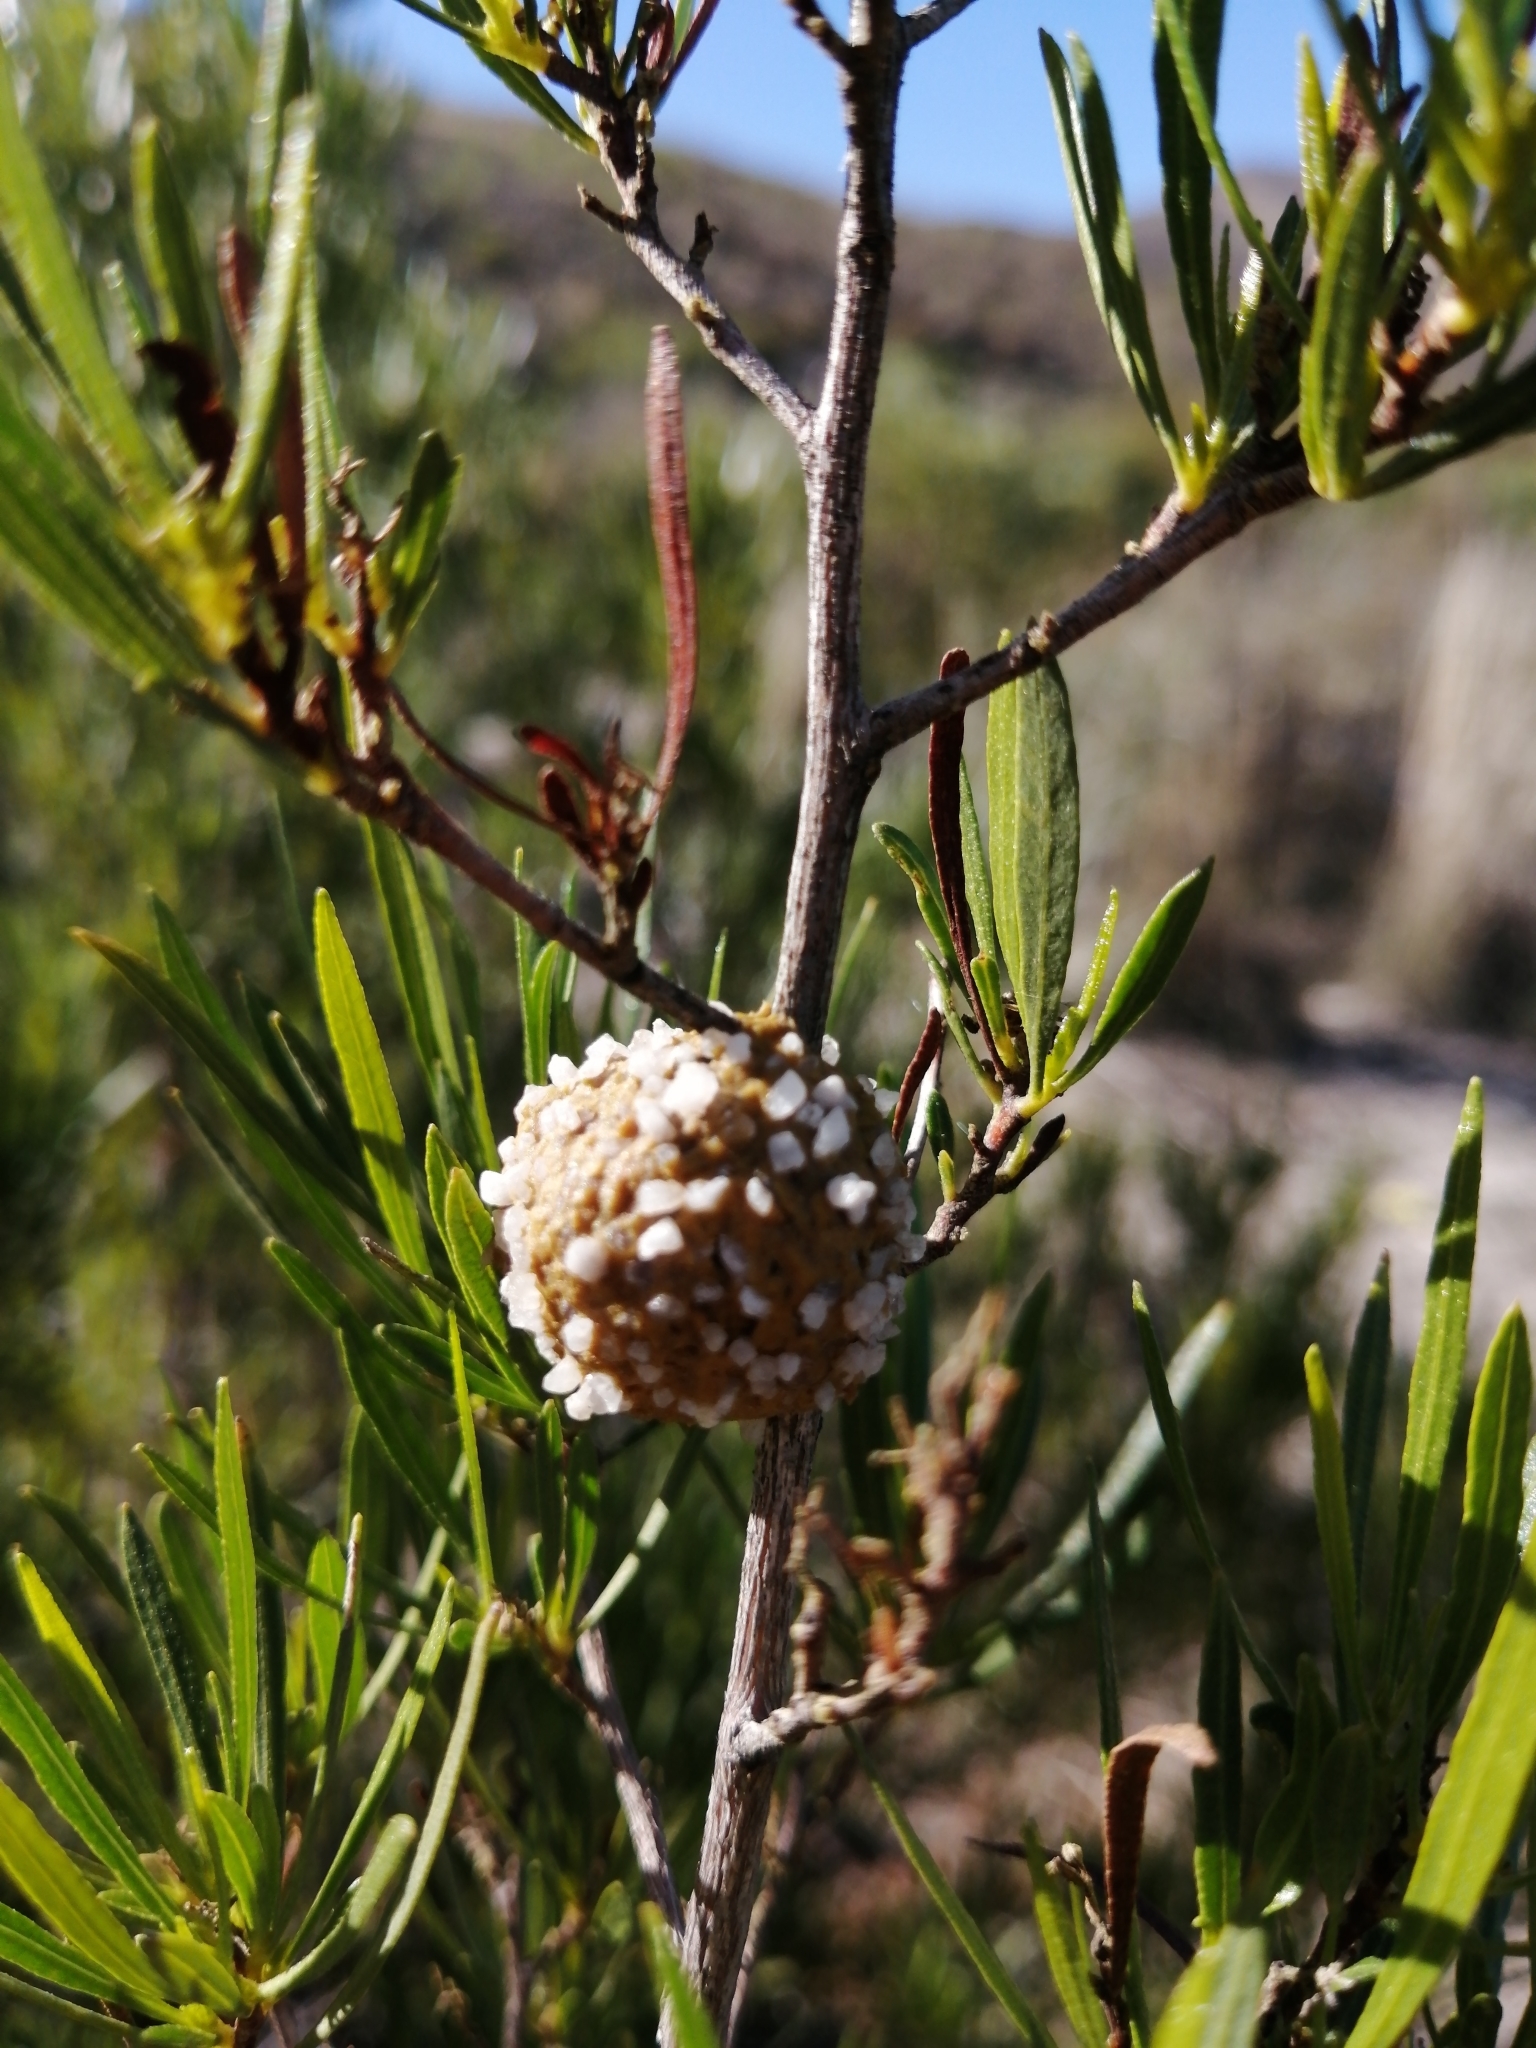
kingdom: Plantae
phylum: Tracheophyta
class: Magnoliopsida
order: Sapindales
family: Sapindaceae
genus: Dodonaea
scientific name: Dodonaea viscosa
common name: Hopbush
